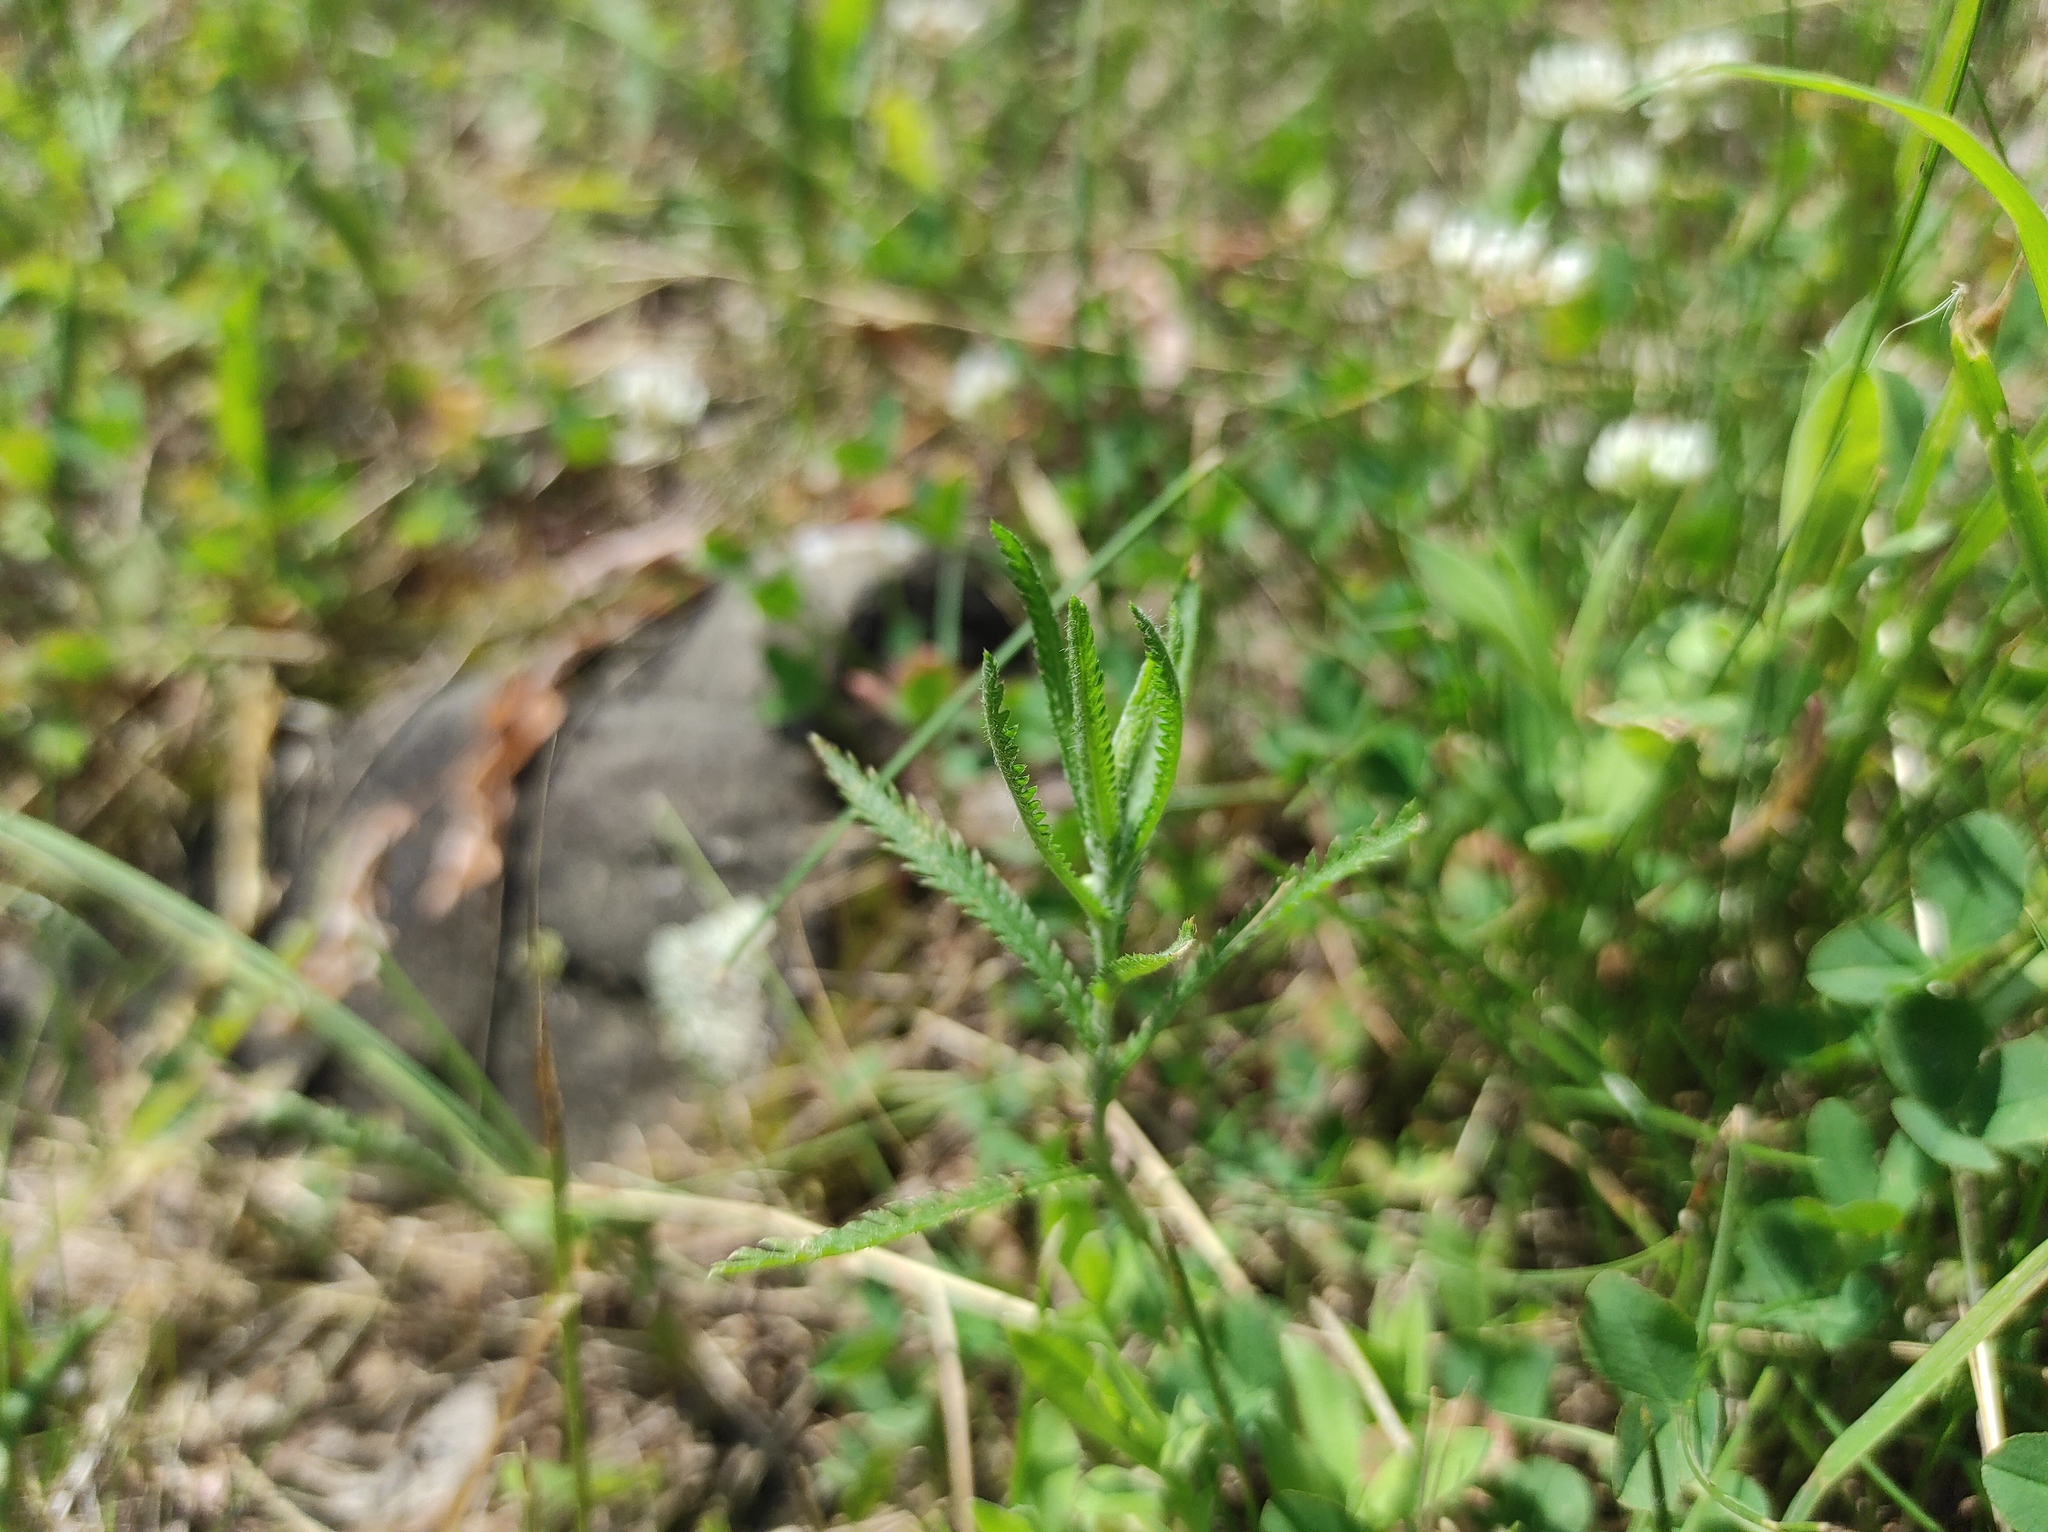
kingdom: Plantae
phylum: Tracheophyta
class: Magnoliopsida
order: Asterales
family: Asteraceae
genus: Achillea
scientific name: Achillea alpina
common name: Siberian yarrow
